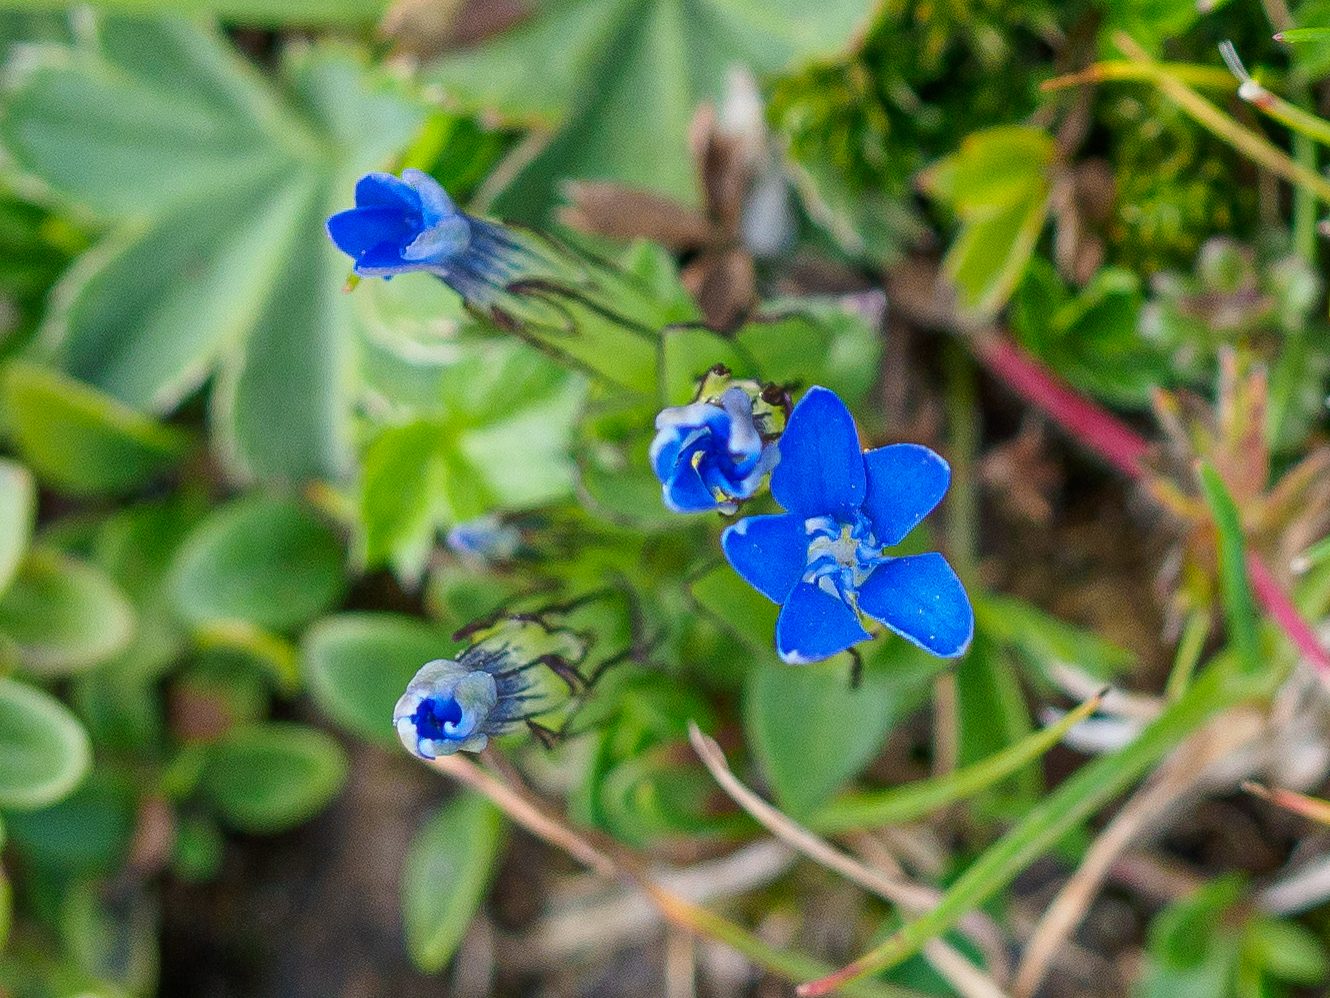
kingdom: Plantae
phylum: Tracheophyta
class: Magnoliopsida
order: Gentianales
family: Gentianaceae
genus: Gentiana
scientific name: Gentiana nivalis
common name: Alpine gentian
